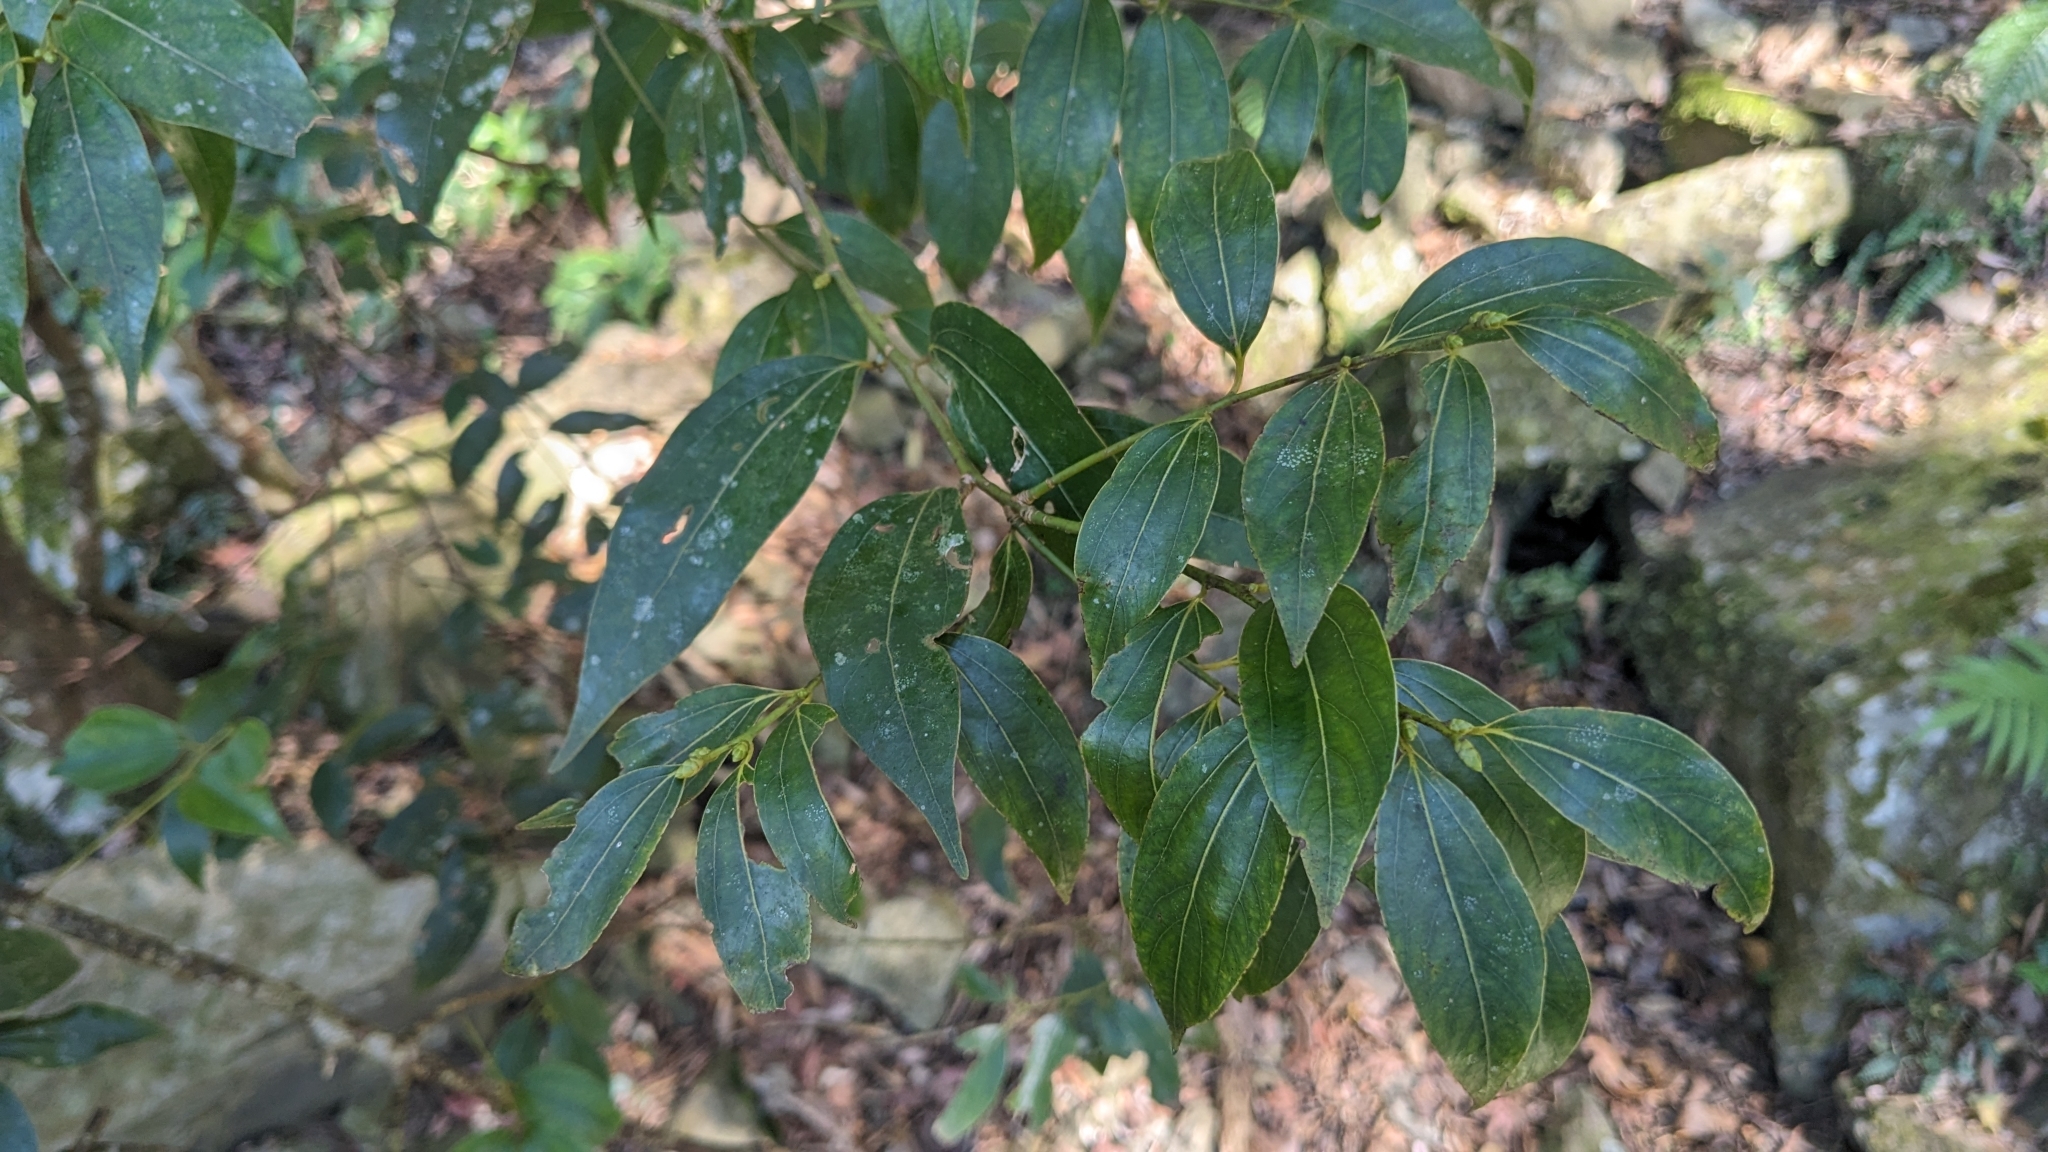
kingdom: Plantae
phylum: Tracheophyta
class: Magnoliopsida
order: Laurales
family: Lauraceae
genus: Cinnamomum
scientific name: Cinnamomum chekiangense
